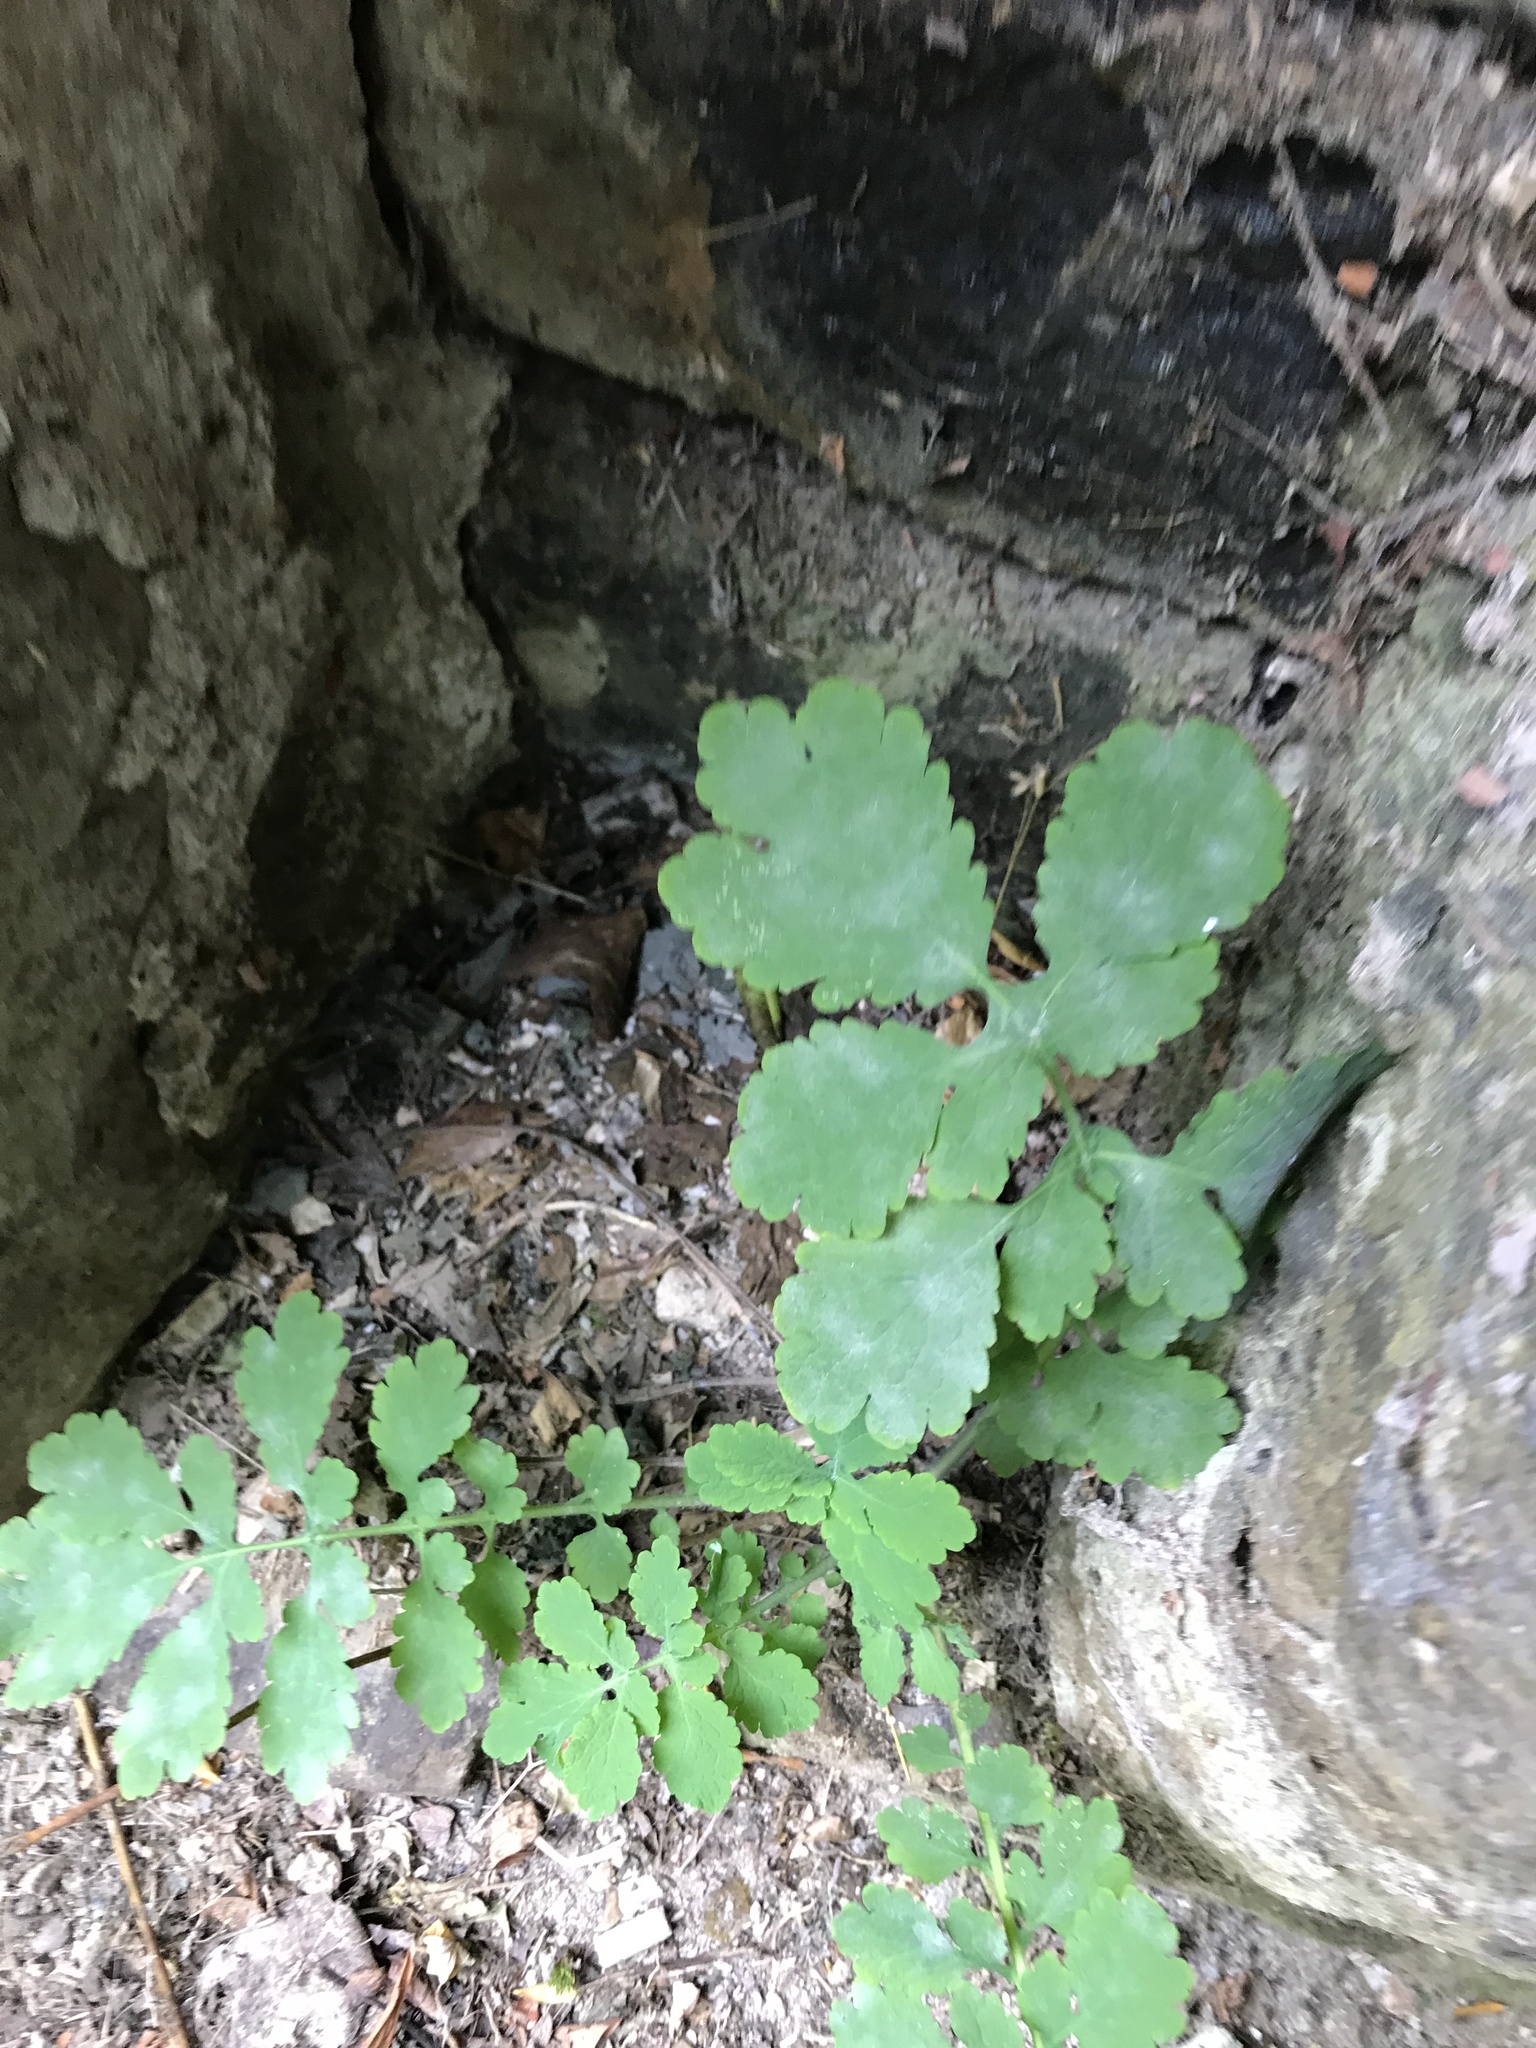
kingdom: Plantae
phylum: Tracheophyta
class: Magnoliopsida
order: Ranunculales
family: Papaveraceae
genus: Chelidonium
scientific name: Chelidonium majus
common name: Greater celandine
